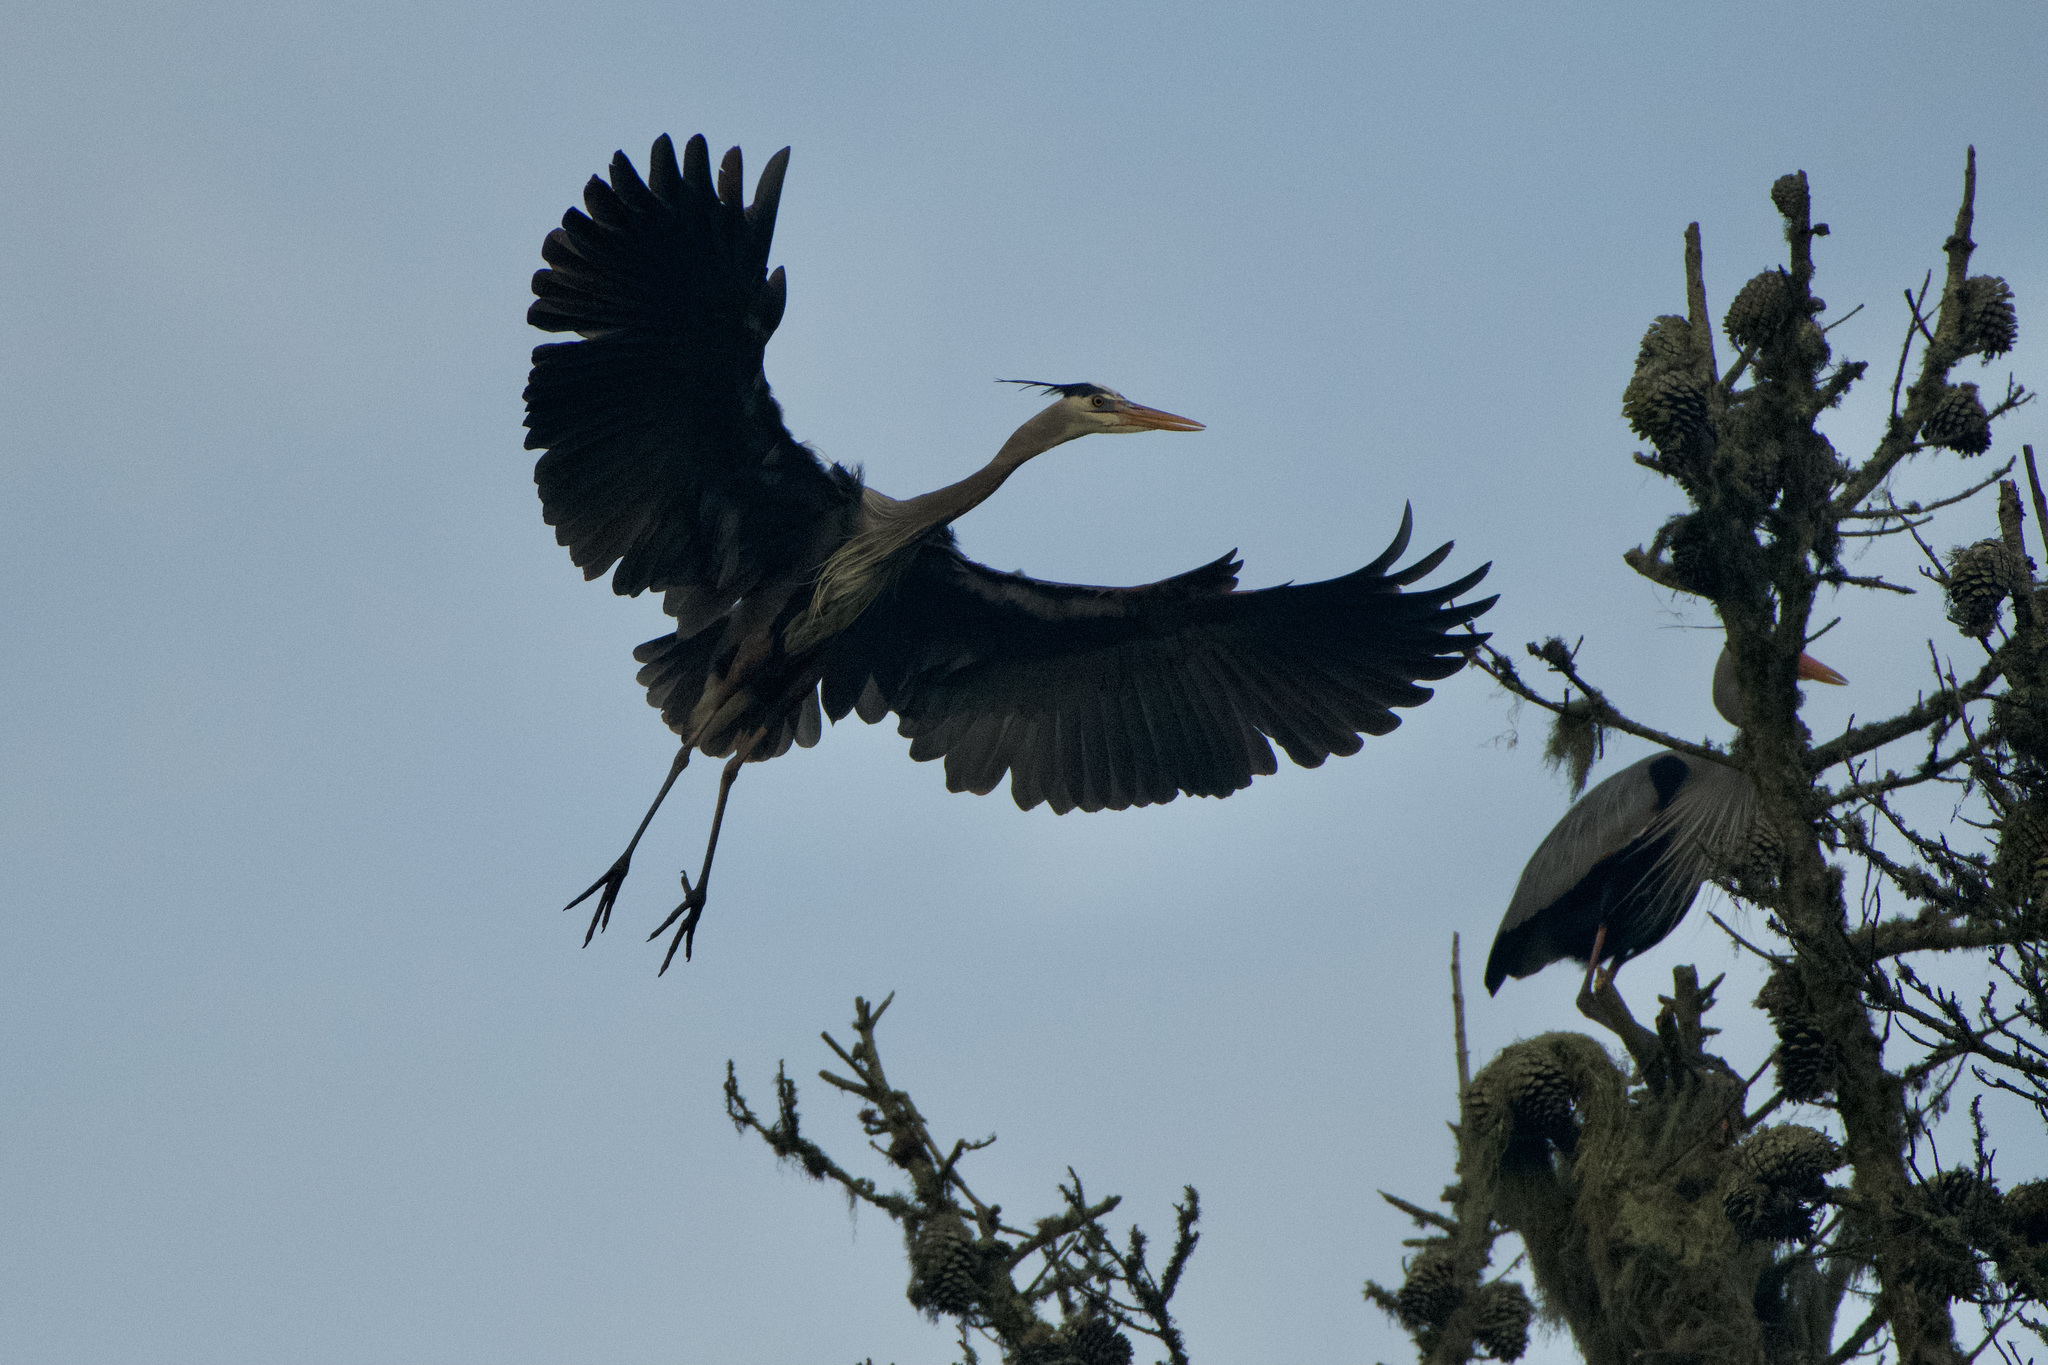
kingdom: Animalia
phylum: Chordata
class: Aves
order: Pelecaniformes
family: Ardeidae
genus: Ardea
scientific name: Ardea herodias
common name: Great blue heron
